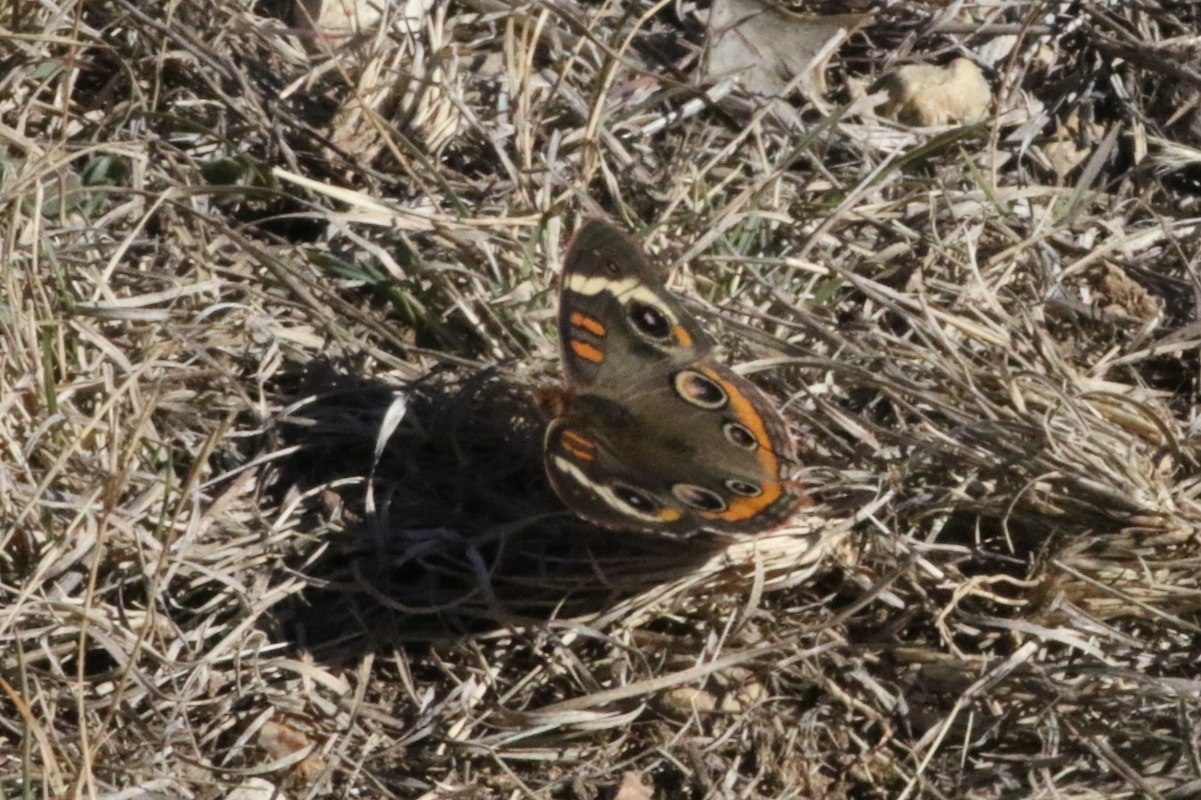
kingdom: Animalia
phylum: Arthropoda
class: Insecta
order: Lepidoptera
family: Nymphalidae
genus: Junonia
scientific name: Junonia coenia
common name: Common buckeye
